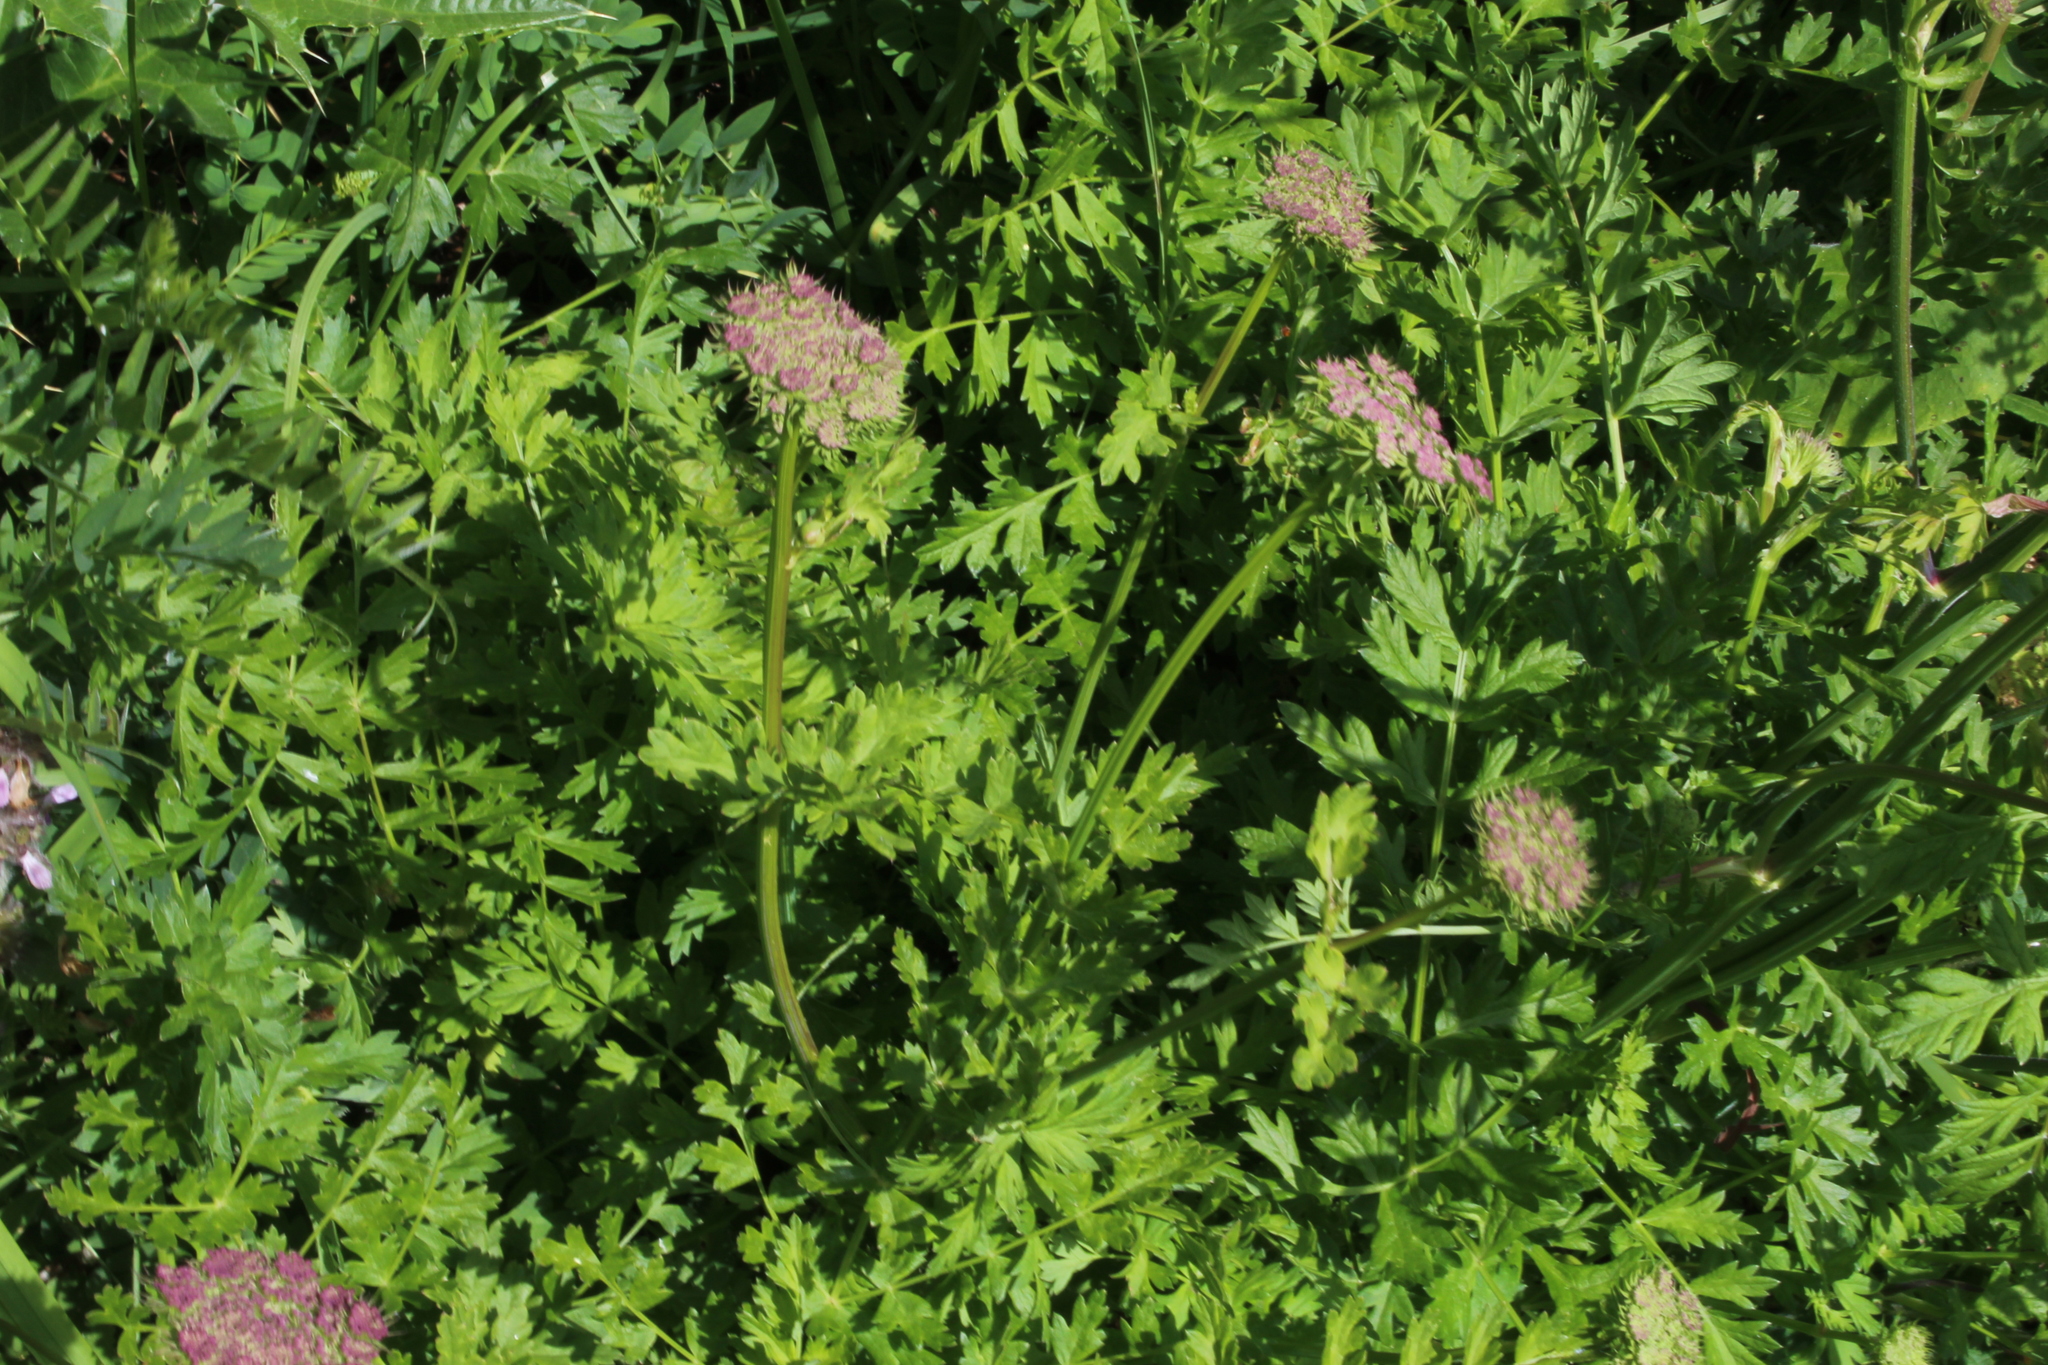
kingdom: Plantae
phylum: Tracheophyta
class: Magnoliopsida
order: Apiales
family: Apiaceae
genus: Laser
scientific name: Laser stevenii
